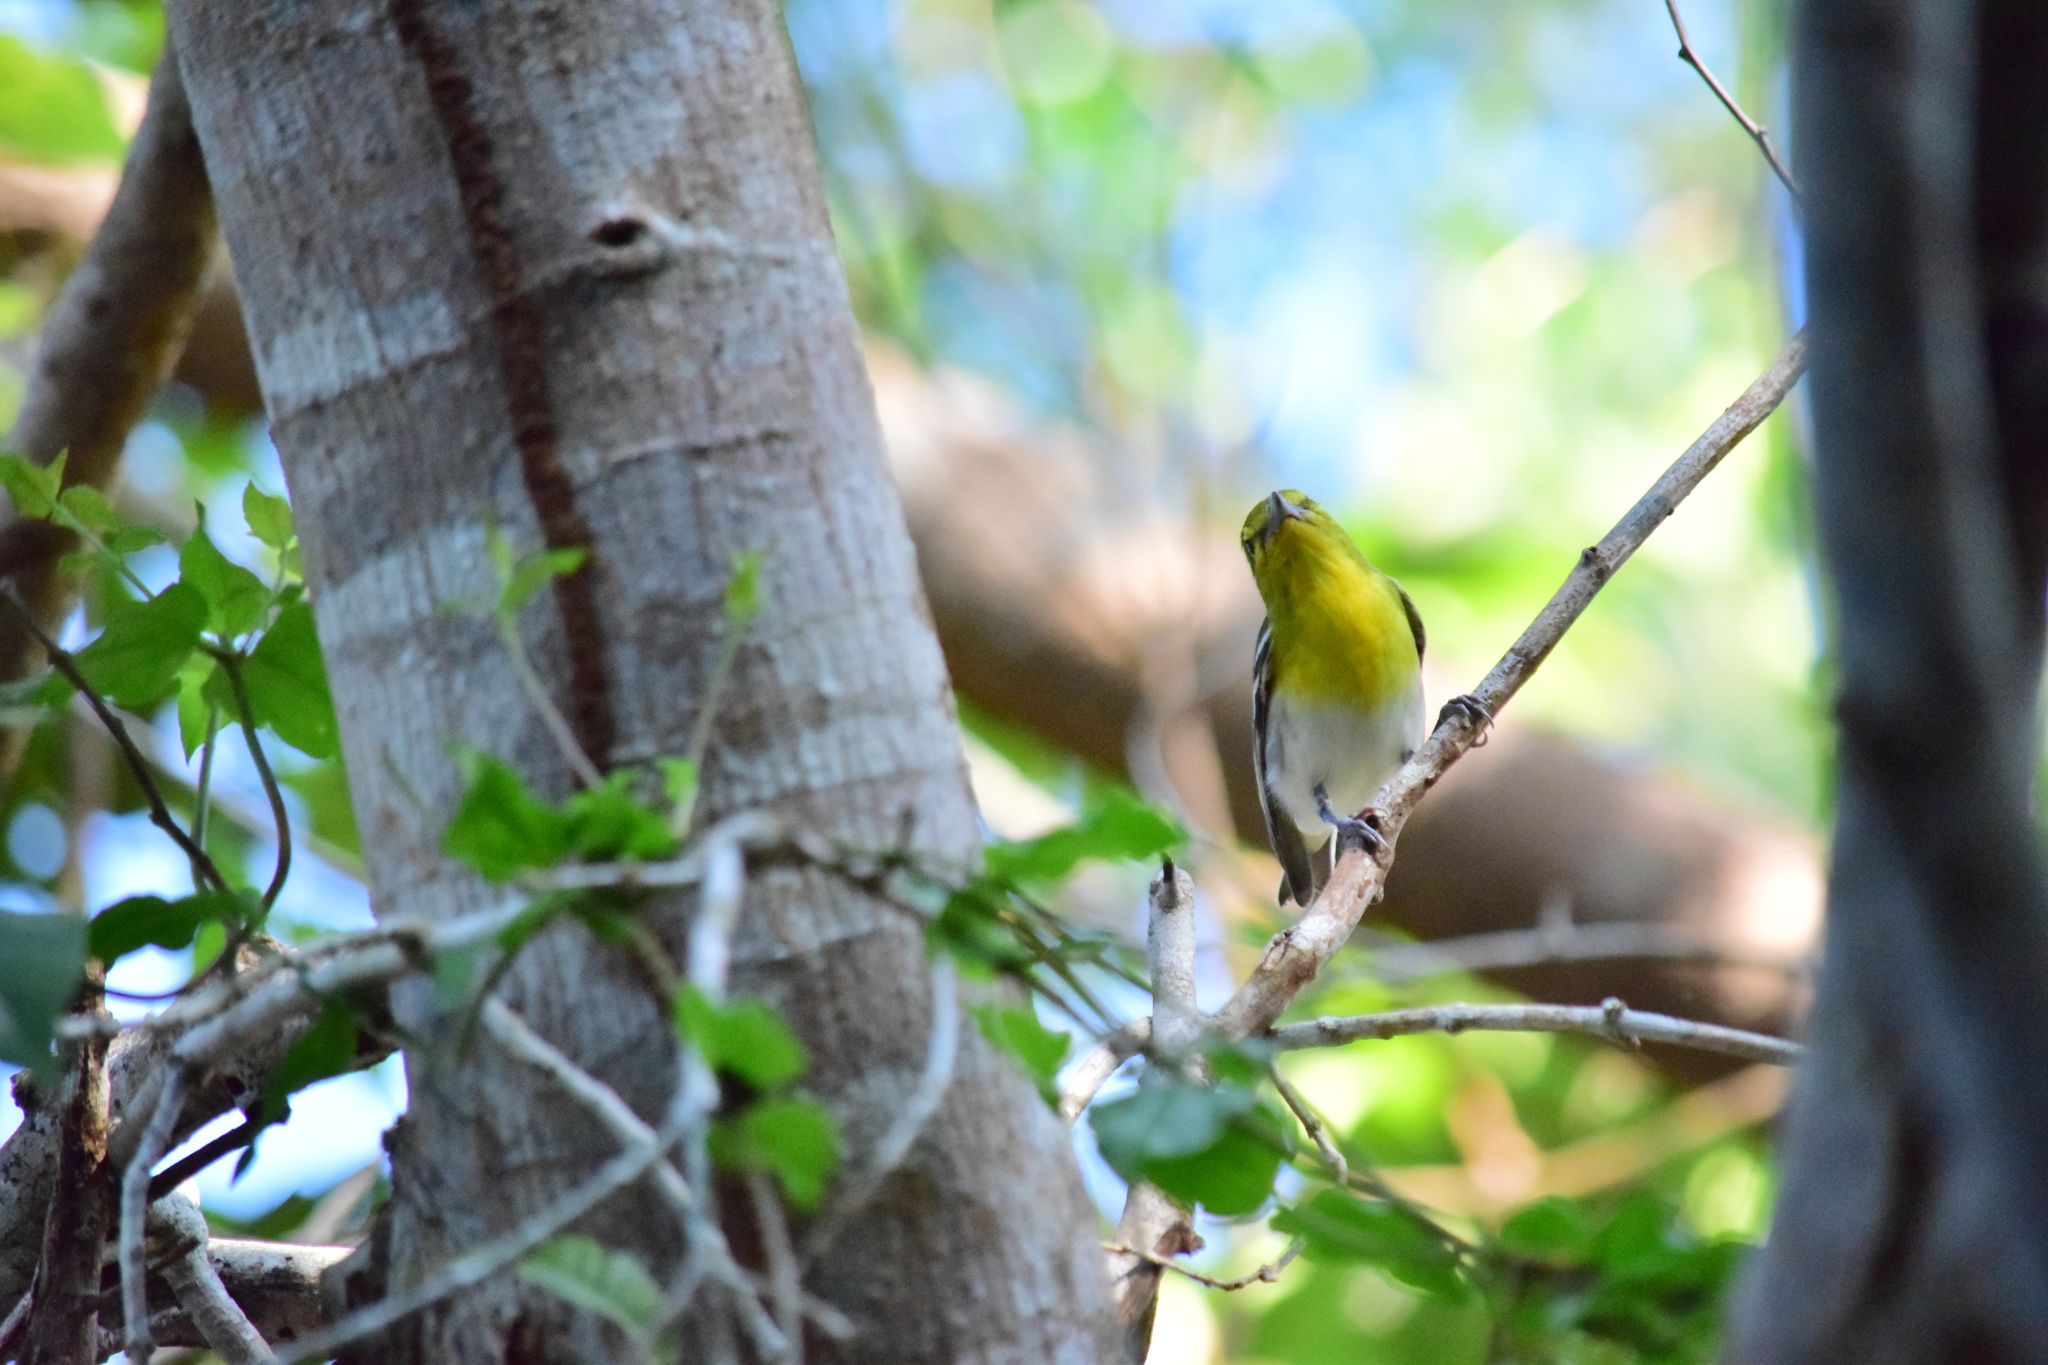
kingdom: Animalia
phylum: Chordata
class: Aves
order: Passeriformes
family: Vireonidae
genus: Vireo
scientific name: Vireo flavifrons
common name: Yellow-throated vireo
